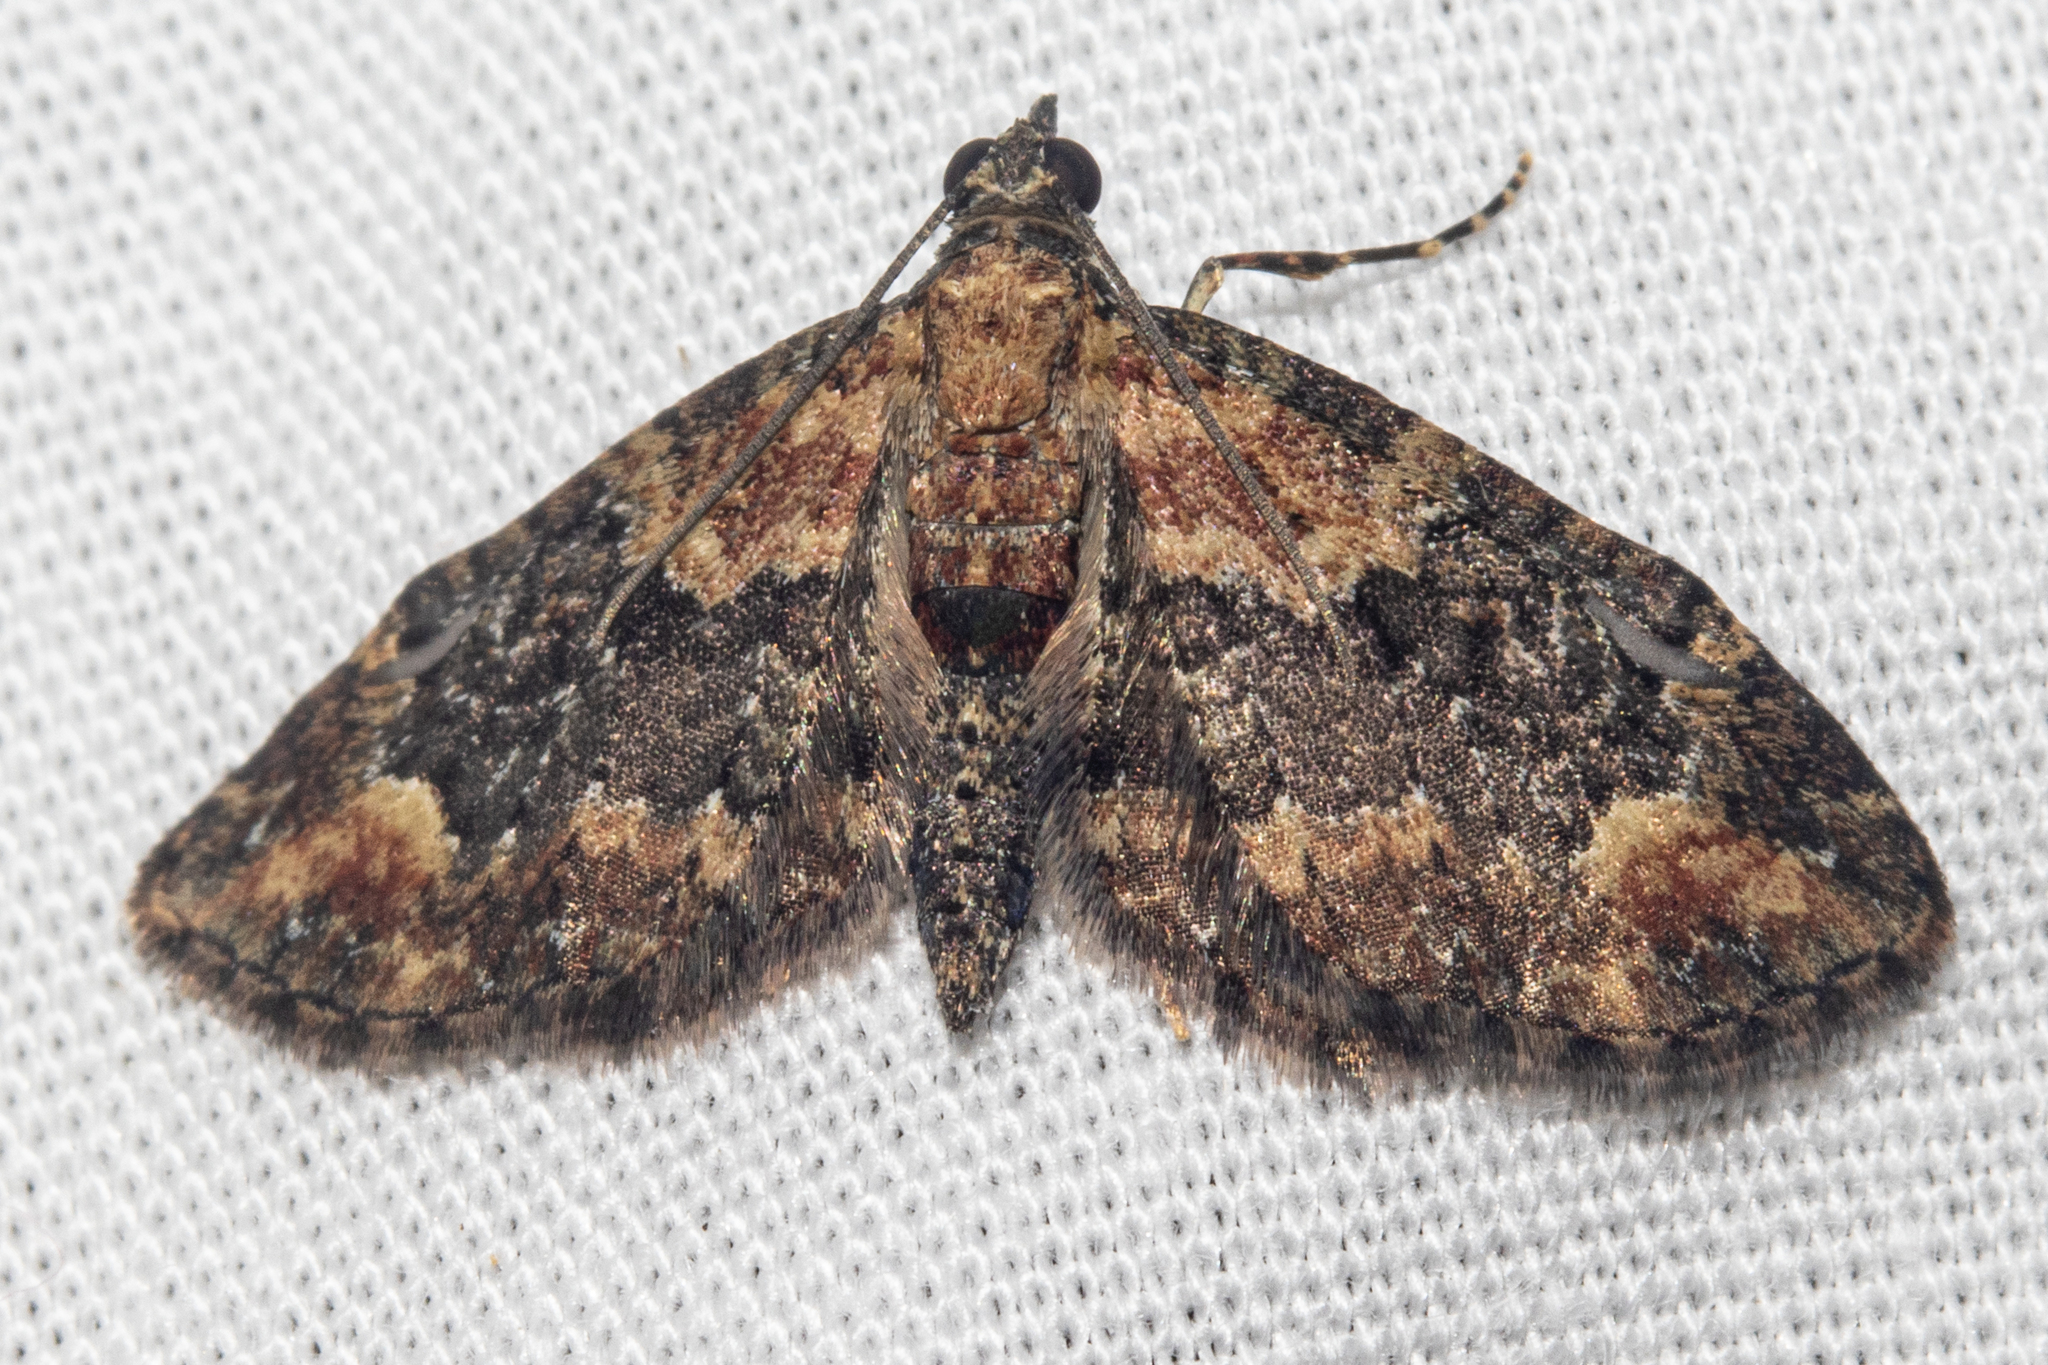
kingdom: Animalia
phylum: Arthropoda
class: Insecta
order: Lepidoptera
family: Geometridae
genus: Pasiphilodes
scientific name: Pasiphilodes testulata
